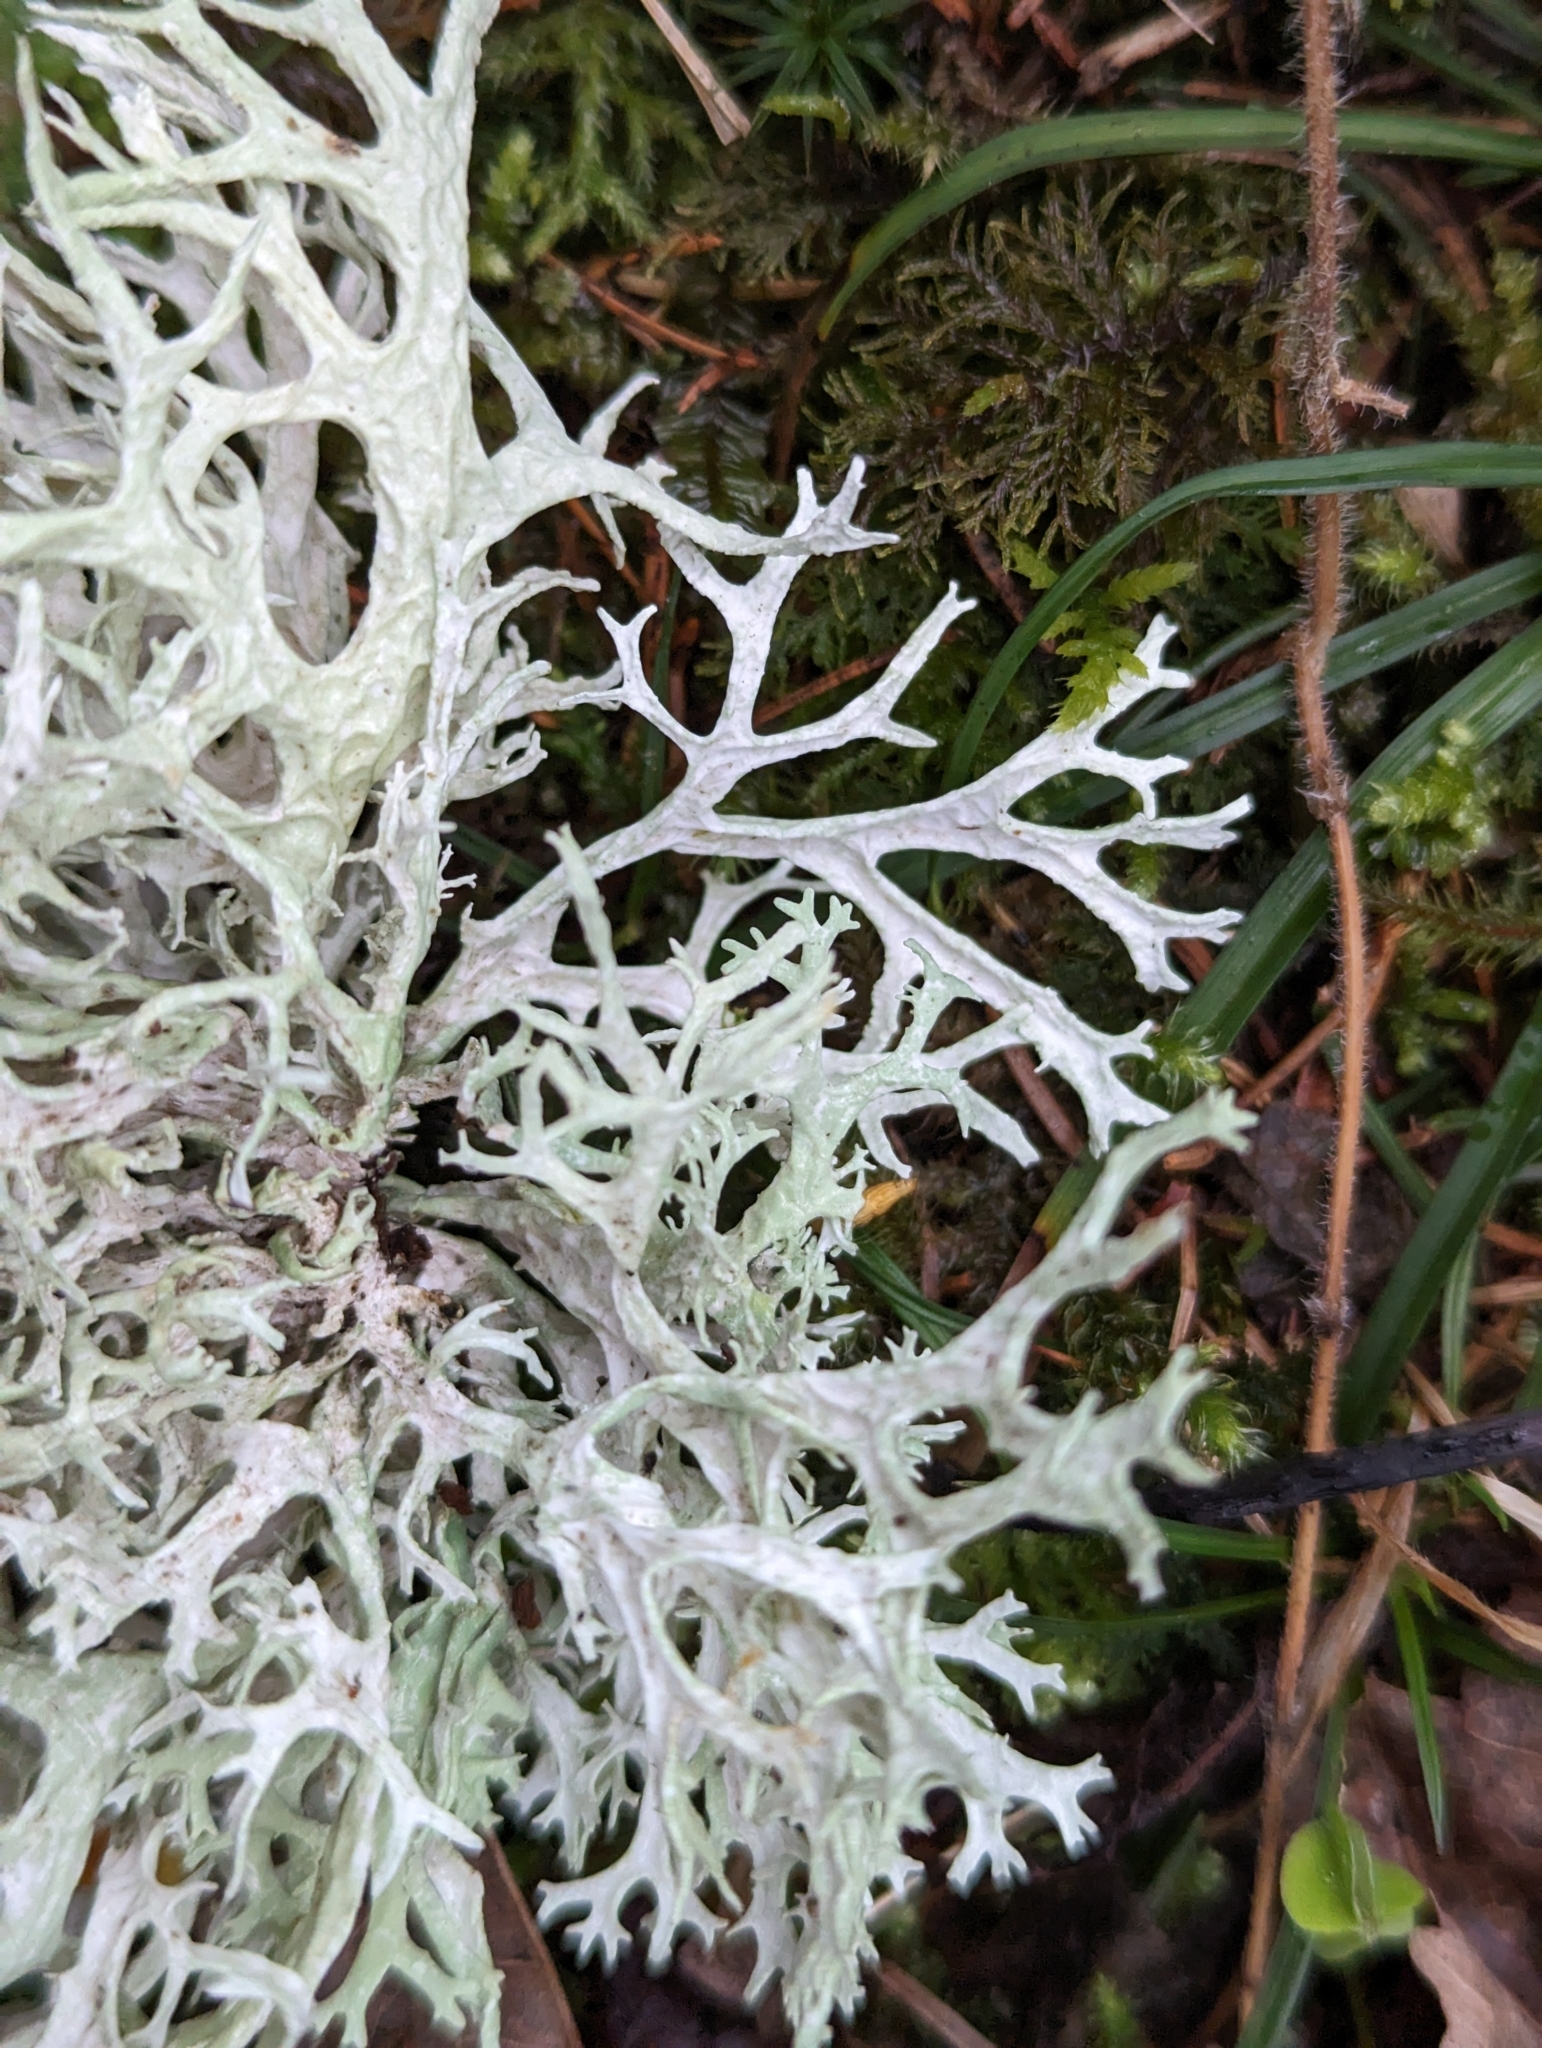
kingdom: Fungi
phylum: Ascomycota
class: Lecanoromycetes
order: Lecanorales
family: Parmeliaceae
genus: Evernia
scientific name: Evernia prunastri
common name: Oak moss
